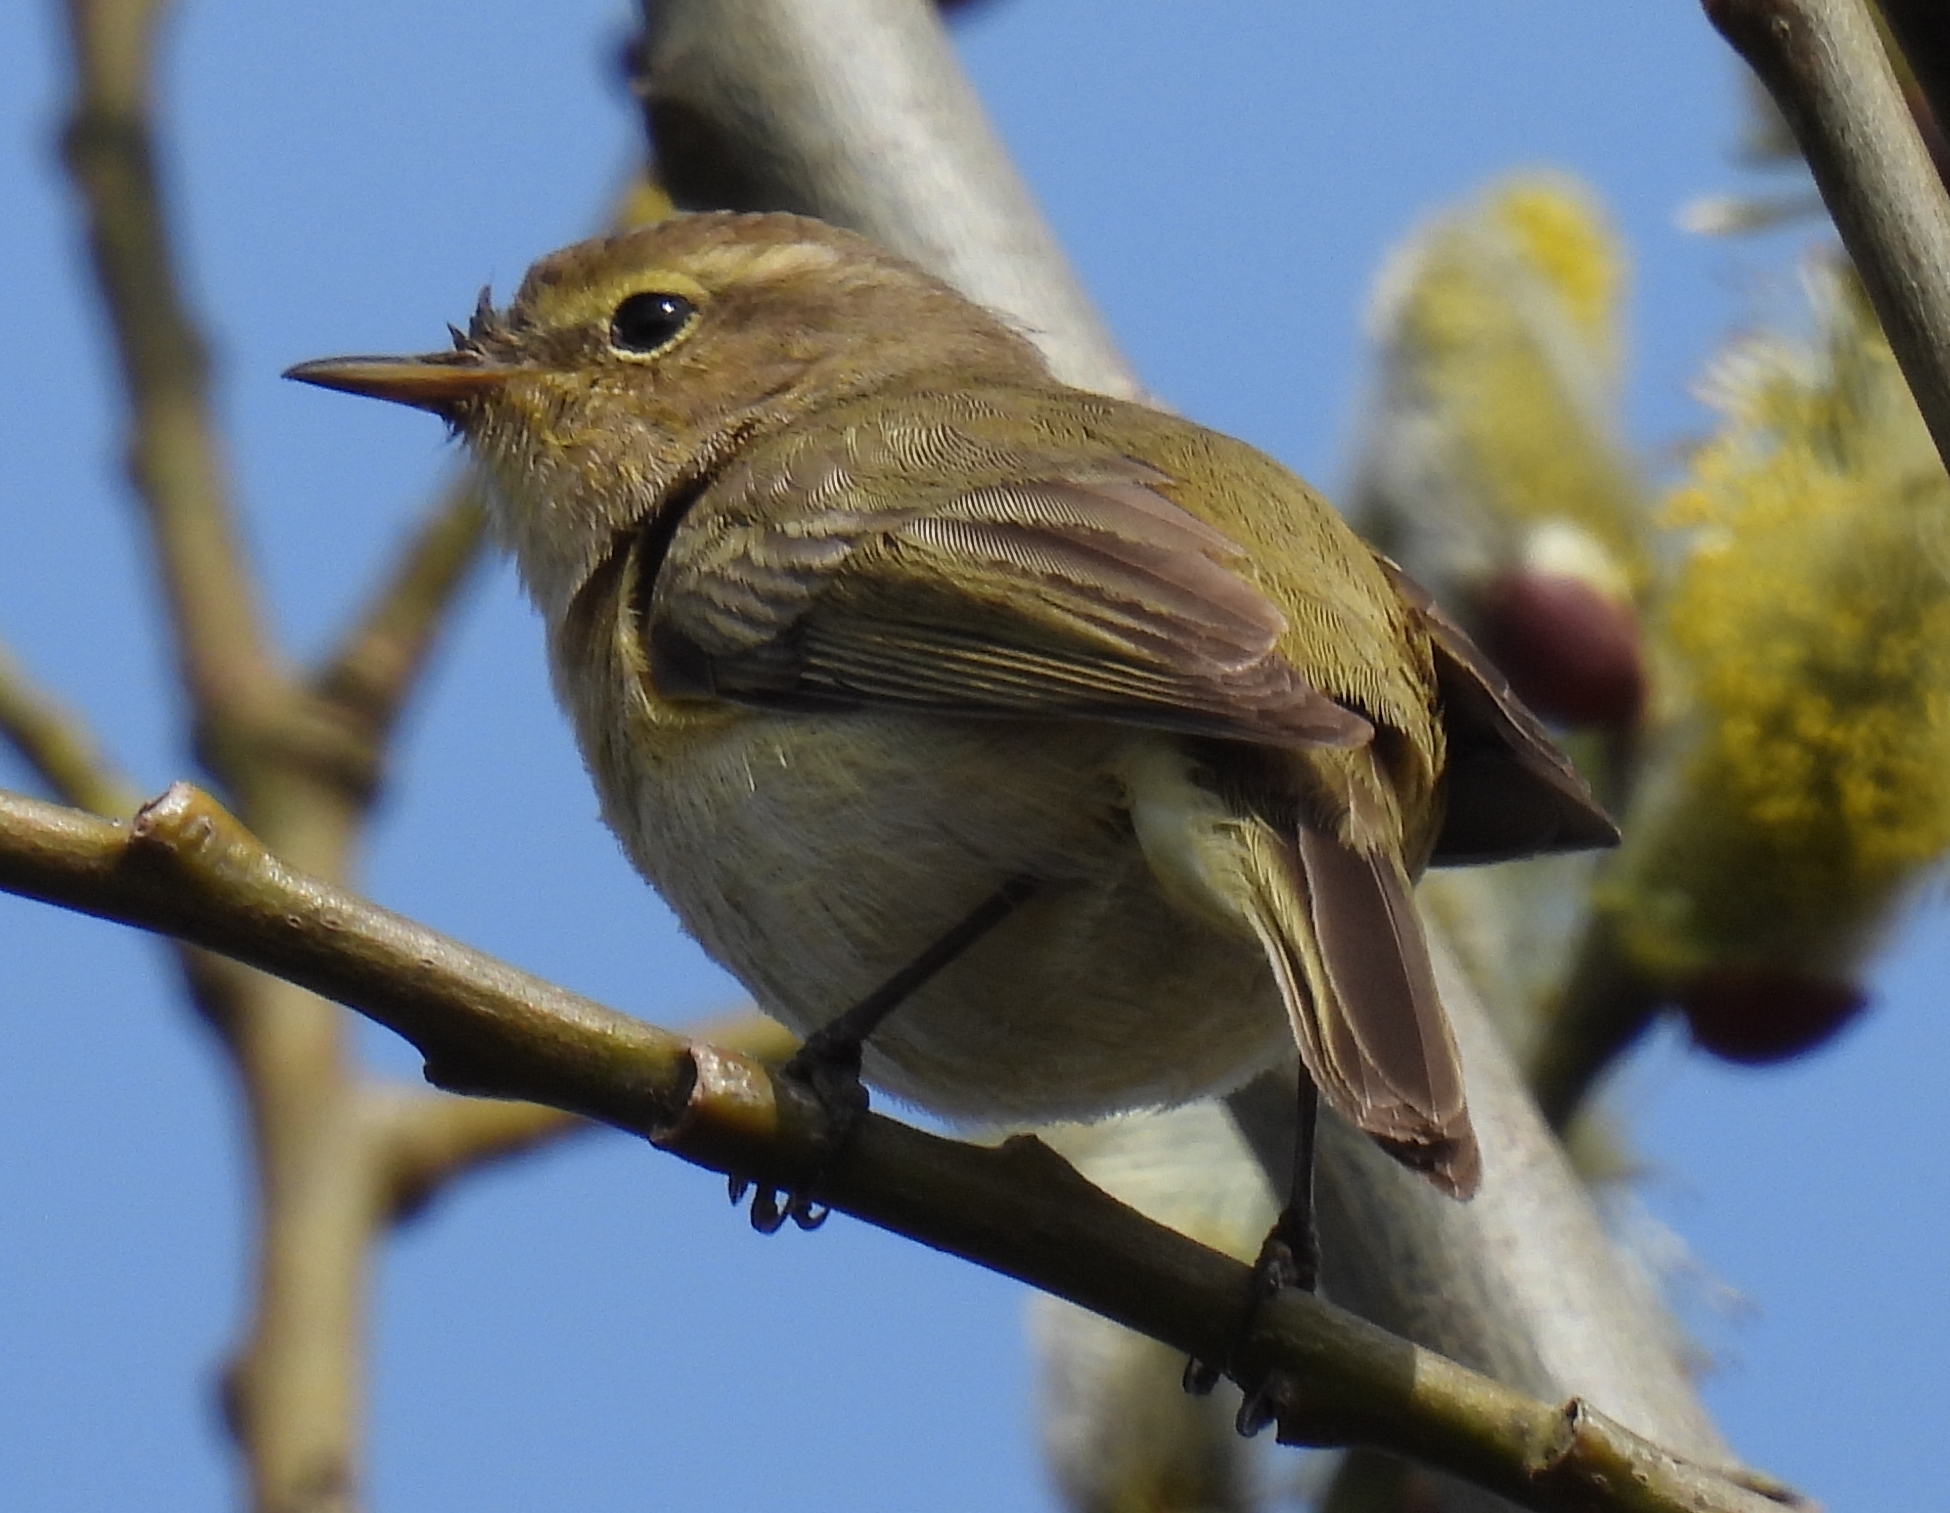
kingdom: Animalia
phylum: Chordata
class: Aves
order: Passeriformes
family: Phylloscopidae
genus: Phylloscopus
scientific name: Phylloscopus collybita
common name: Common chiffchaff
